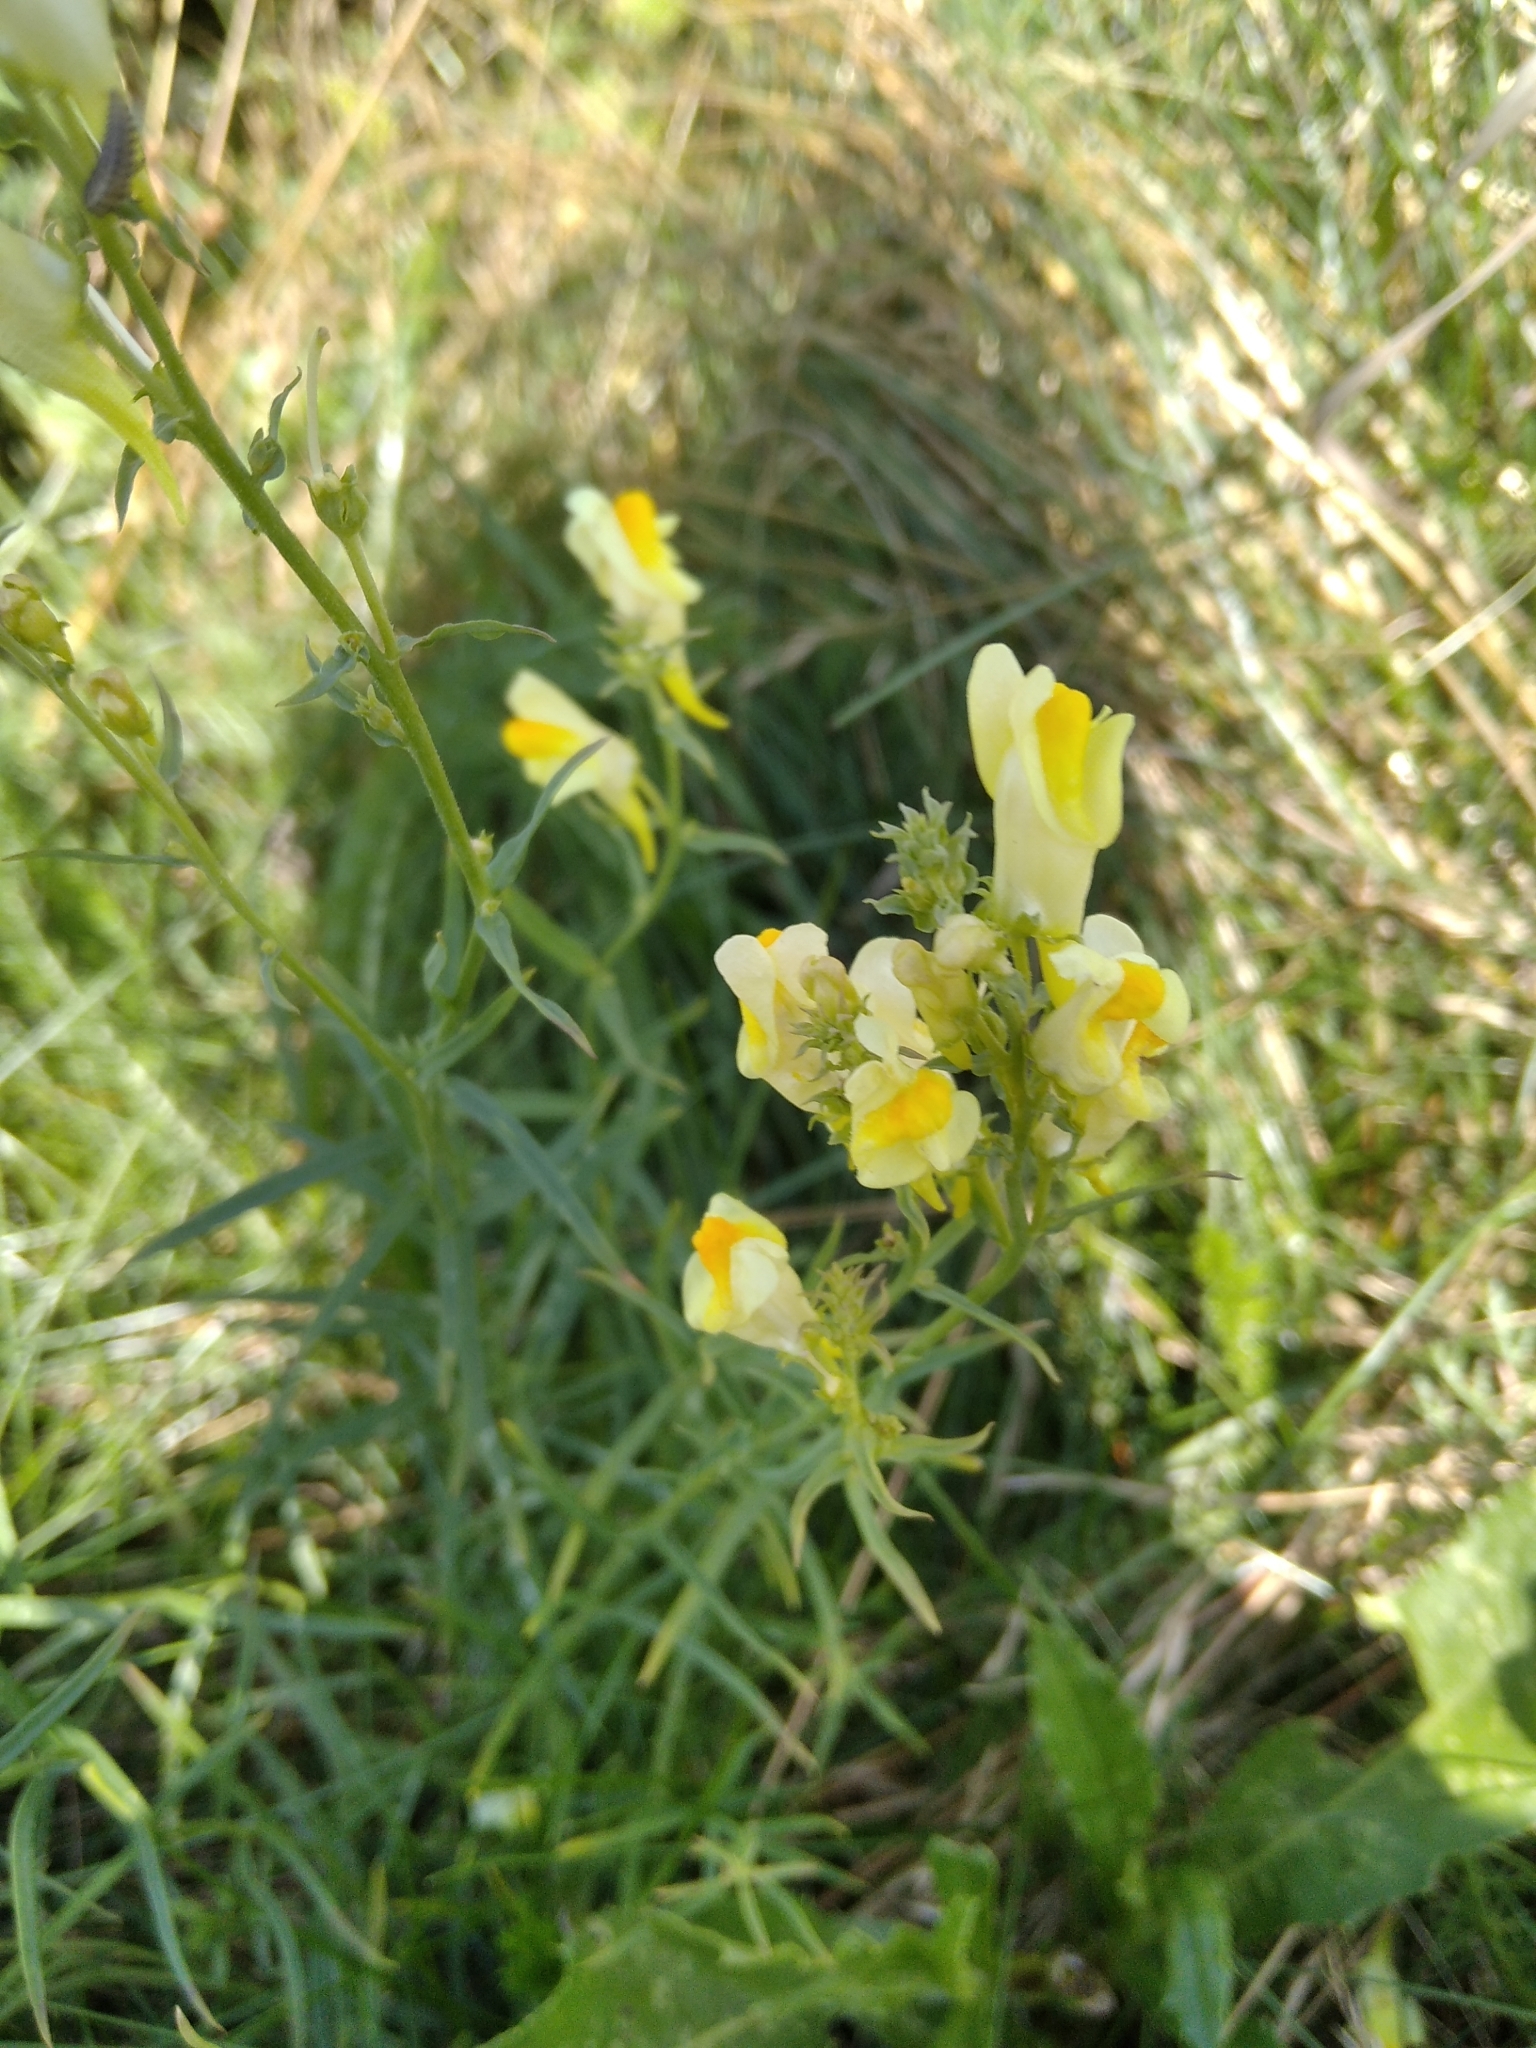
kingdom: Plantae
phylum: Tracheophyta
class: Magnoliopsida
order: Lamiales
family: Plantaginaceae
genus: Linaria
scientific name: Linaria vulgaris
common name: Butter and eggs
